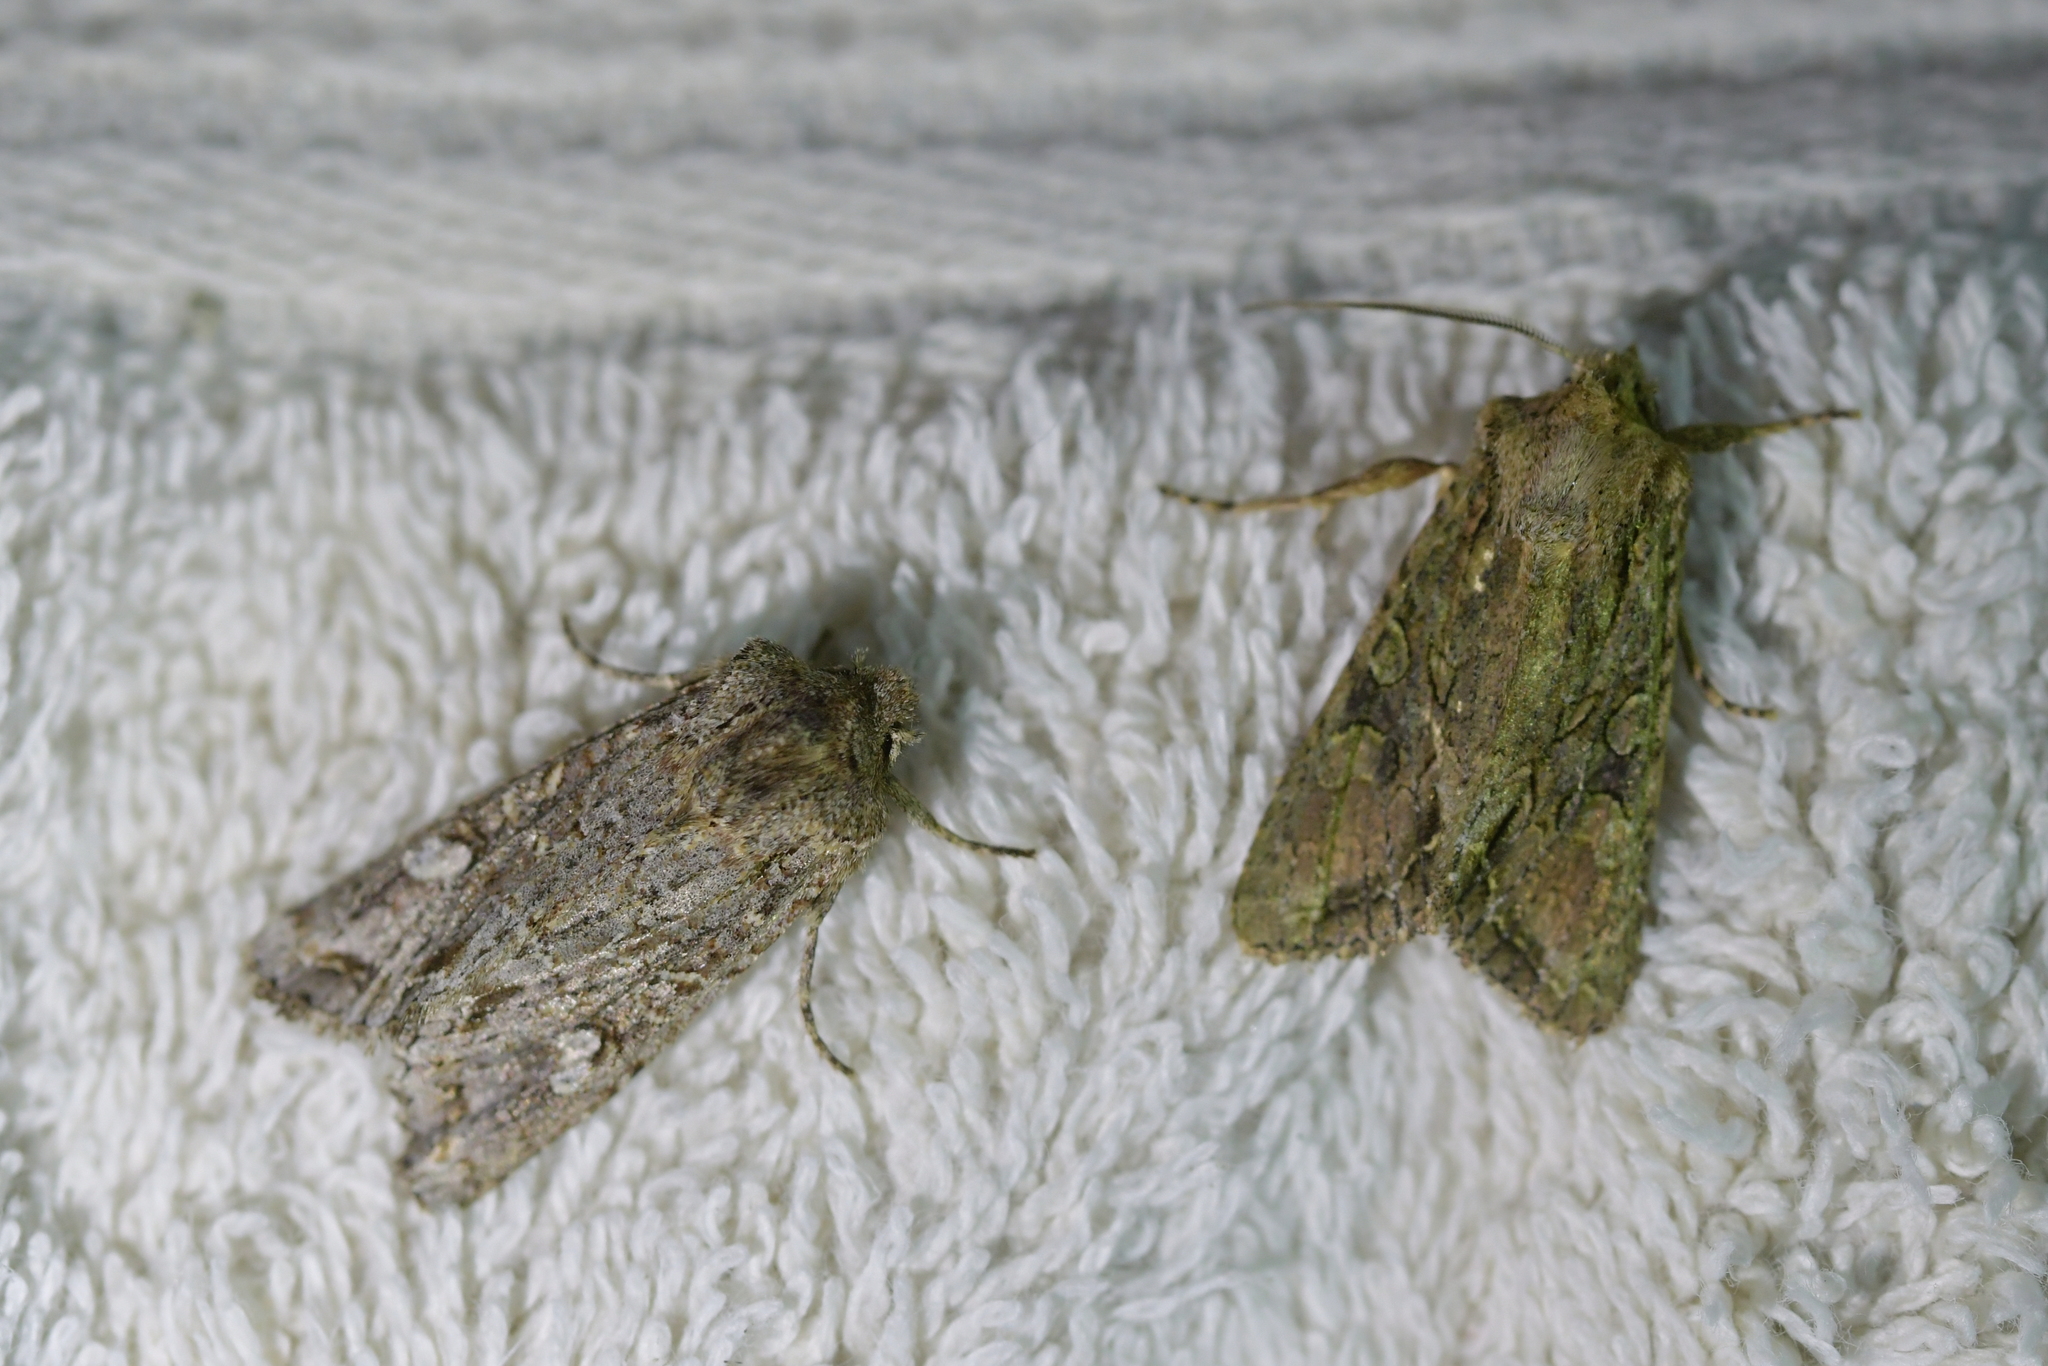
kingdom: Animalia
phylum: Arthropoda
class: Insecta
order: Lepidoptera
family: Noctuidae
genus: Ichneutica
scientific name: Ichneutica mutans
